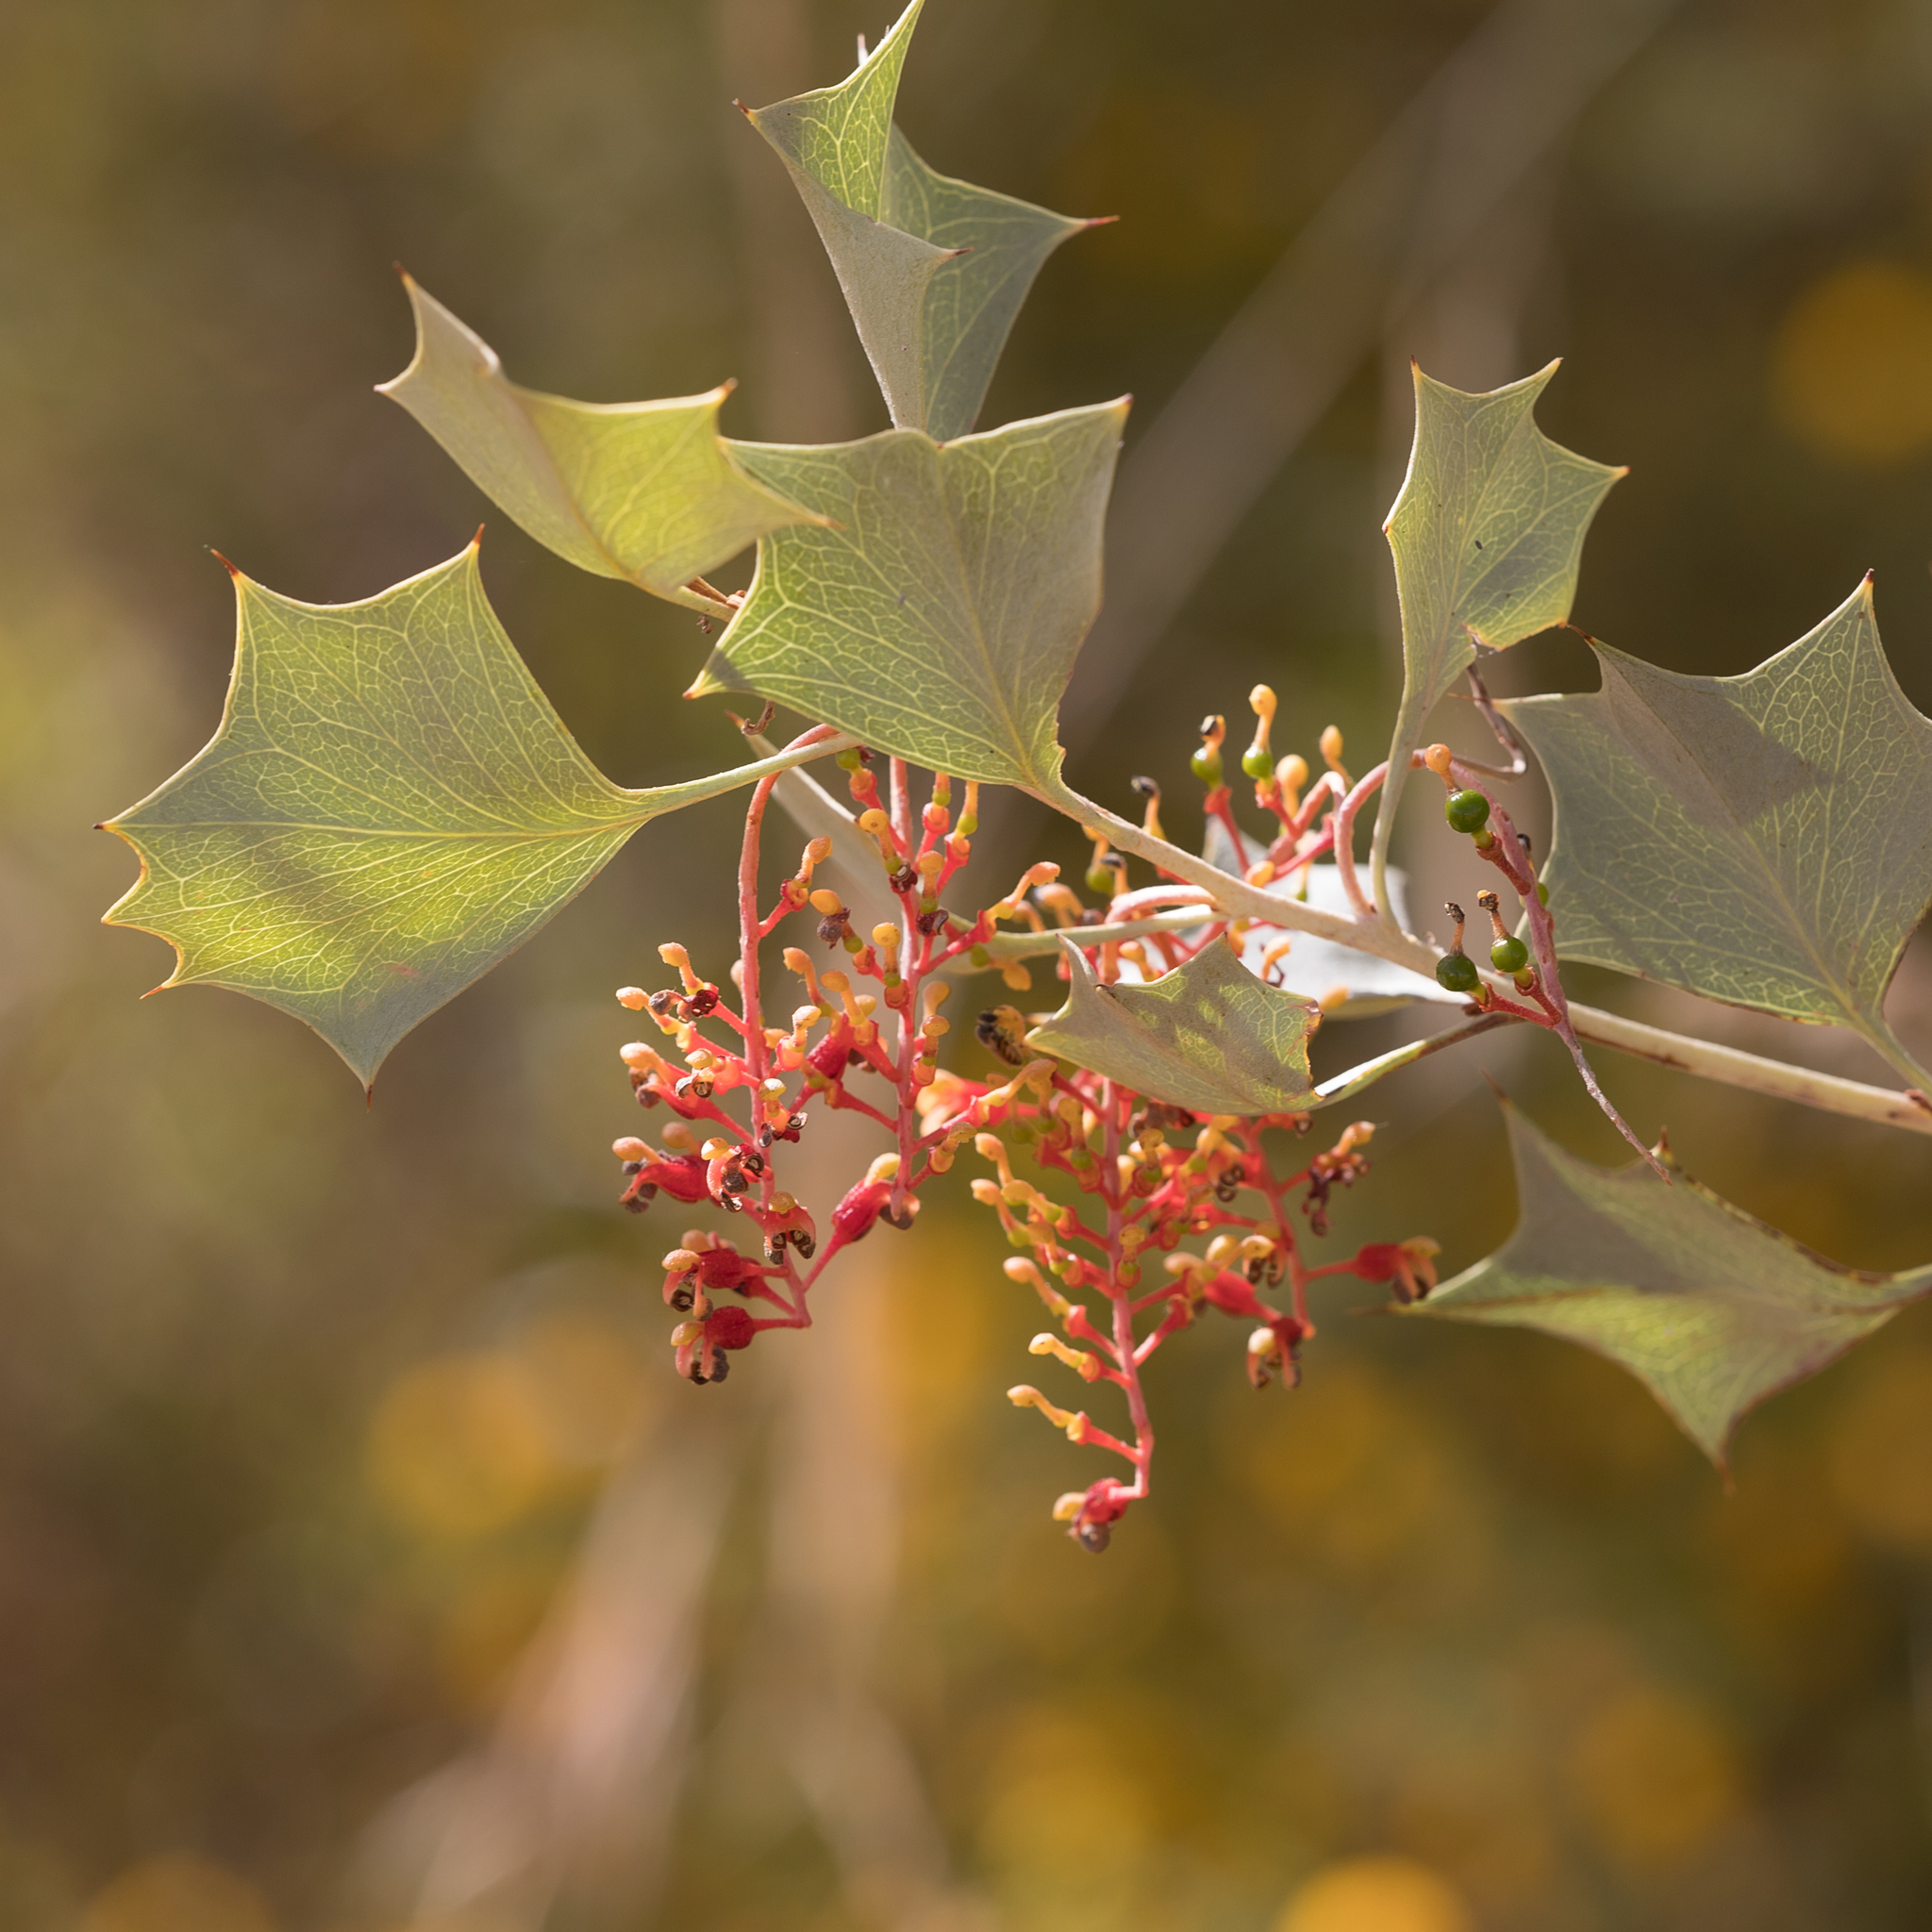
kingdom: Plantae
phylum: Tracheophyta
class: Magnoliopsida
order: Proteales
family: Proteaceae
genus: Grevillea
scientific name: Grevillea wickhamii
